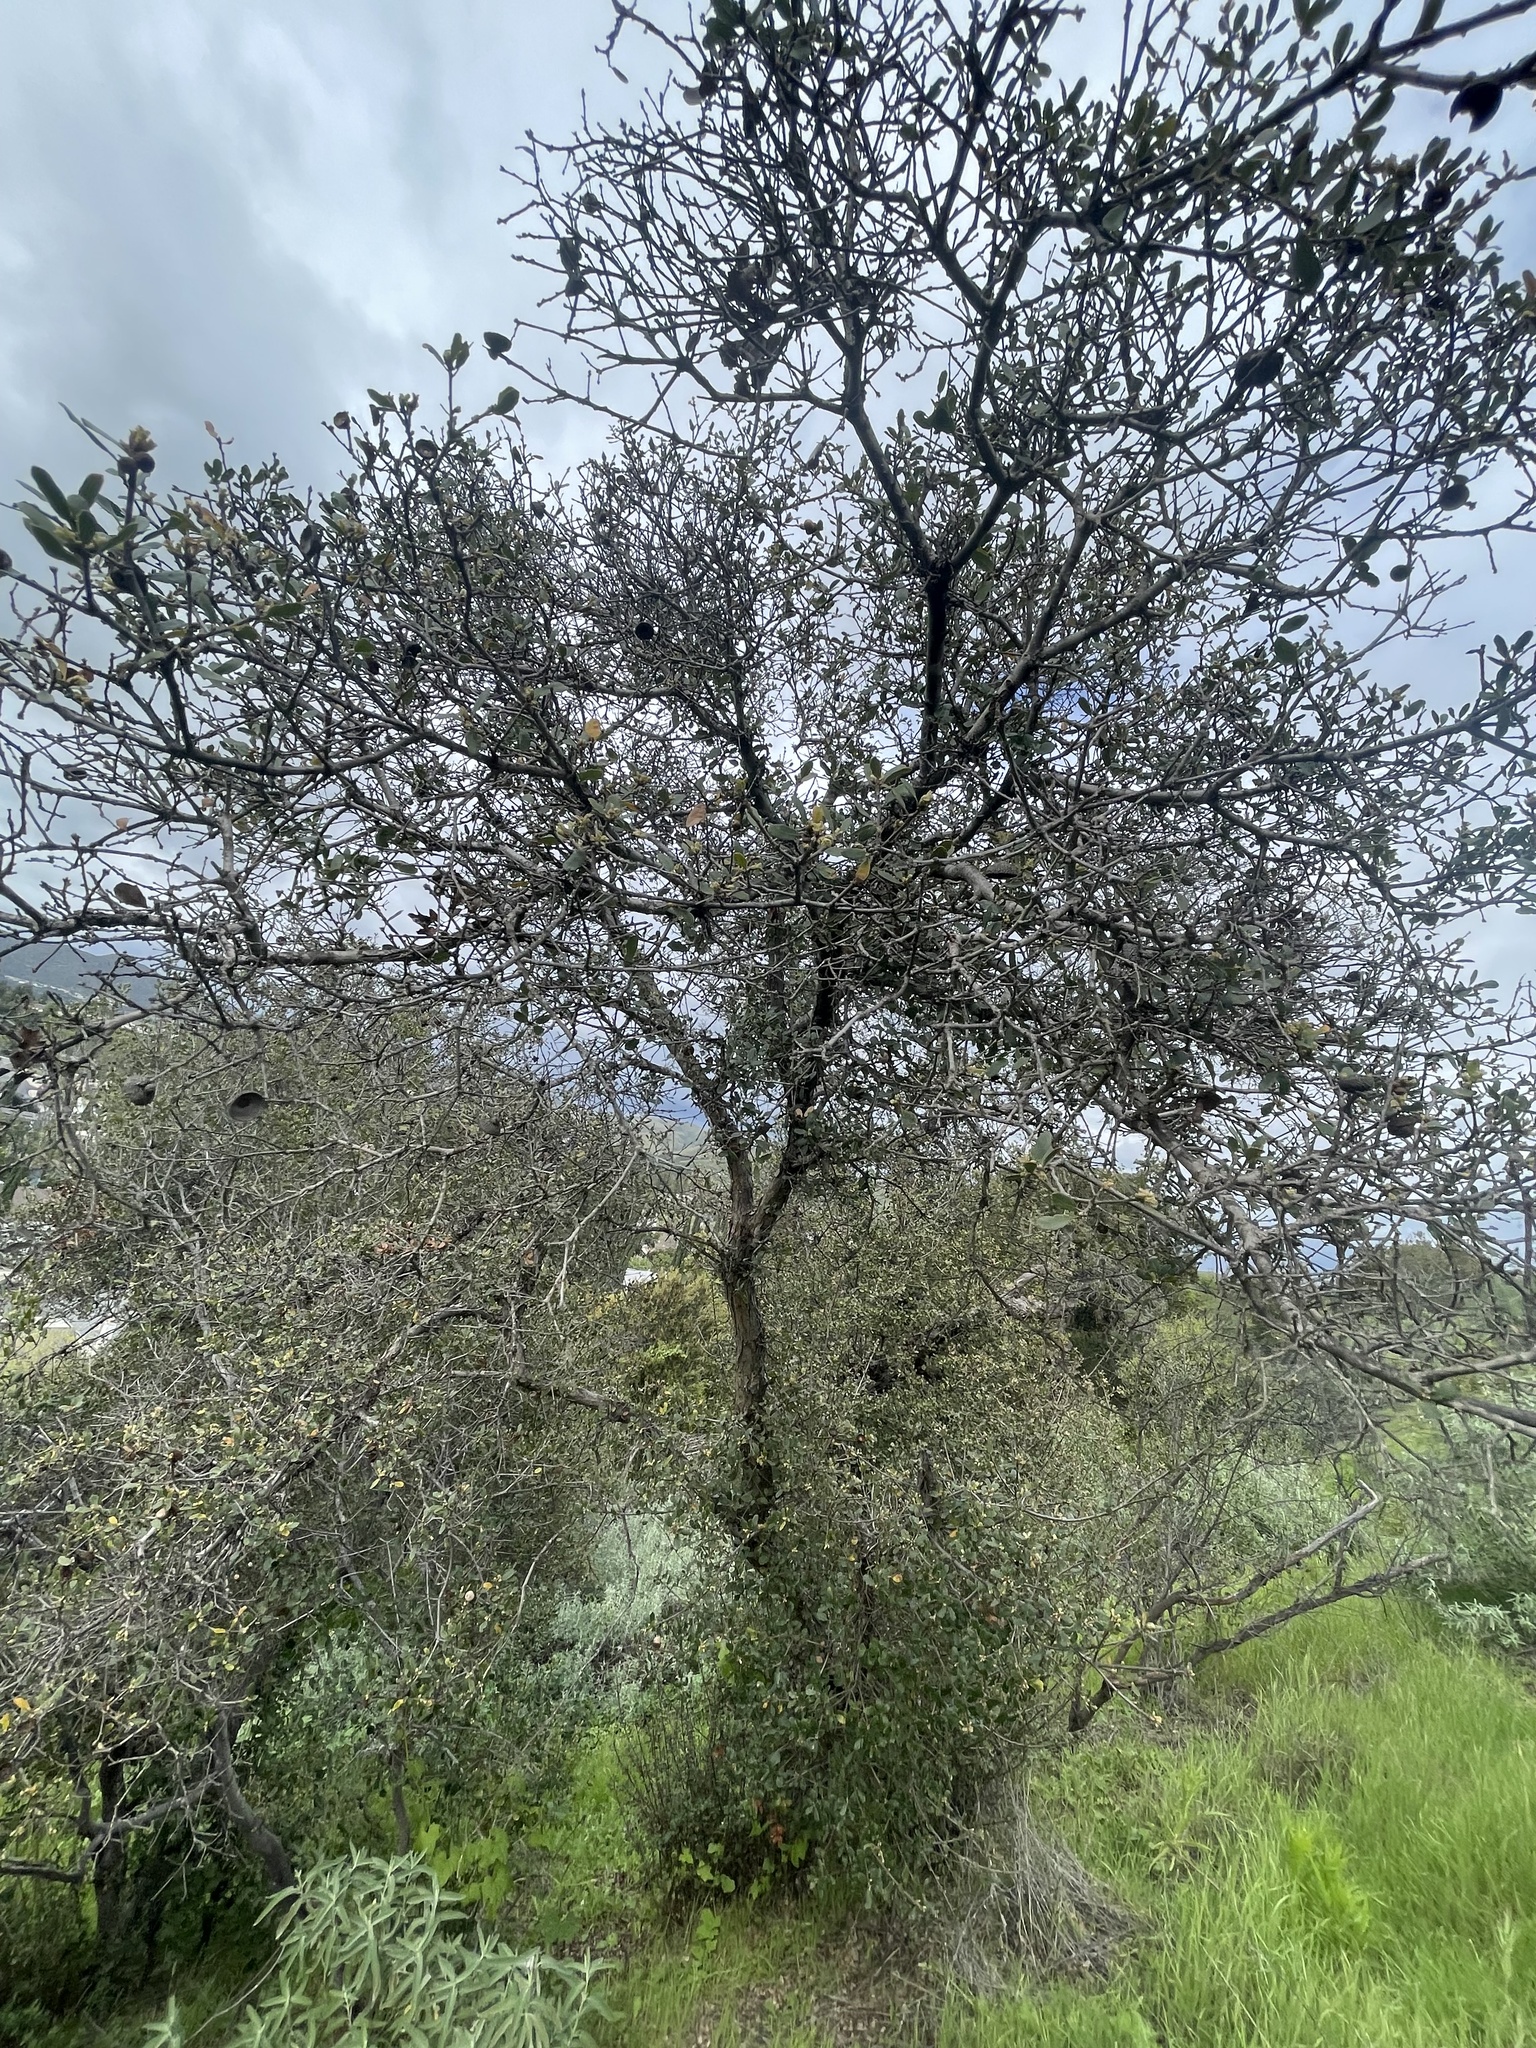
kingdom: Plantae
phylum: Tracheophyta
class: Magnoliopsida
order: Fagales
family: Fagaceae
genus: Quercus
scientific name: Quercus
